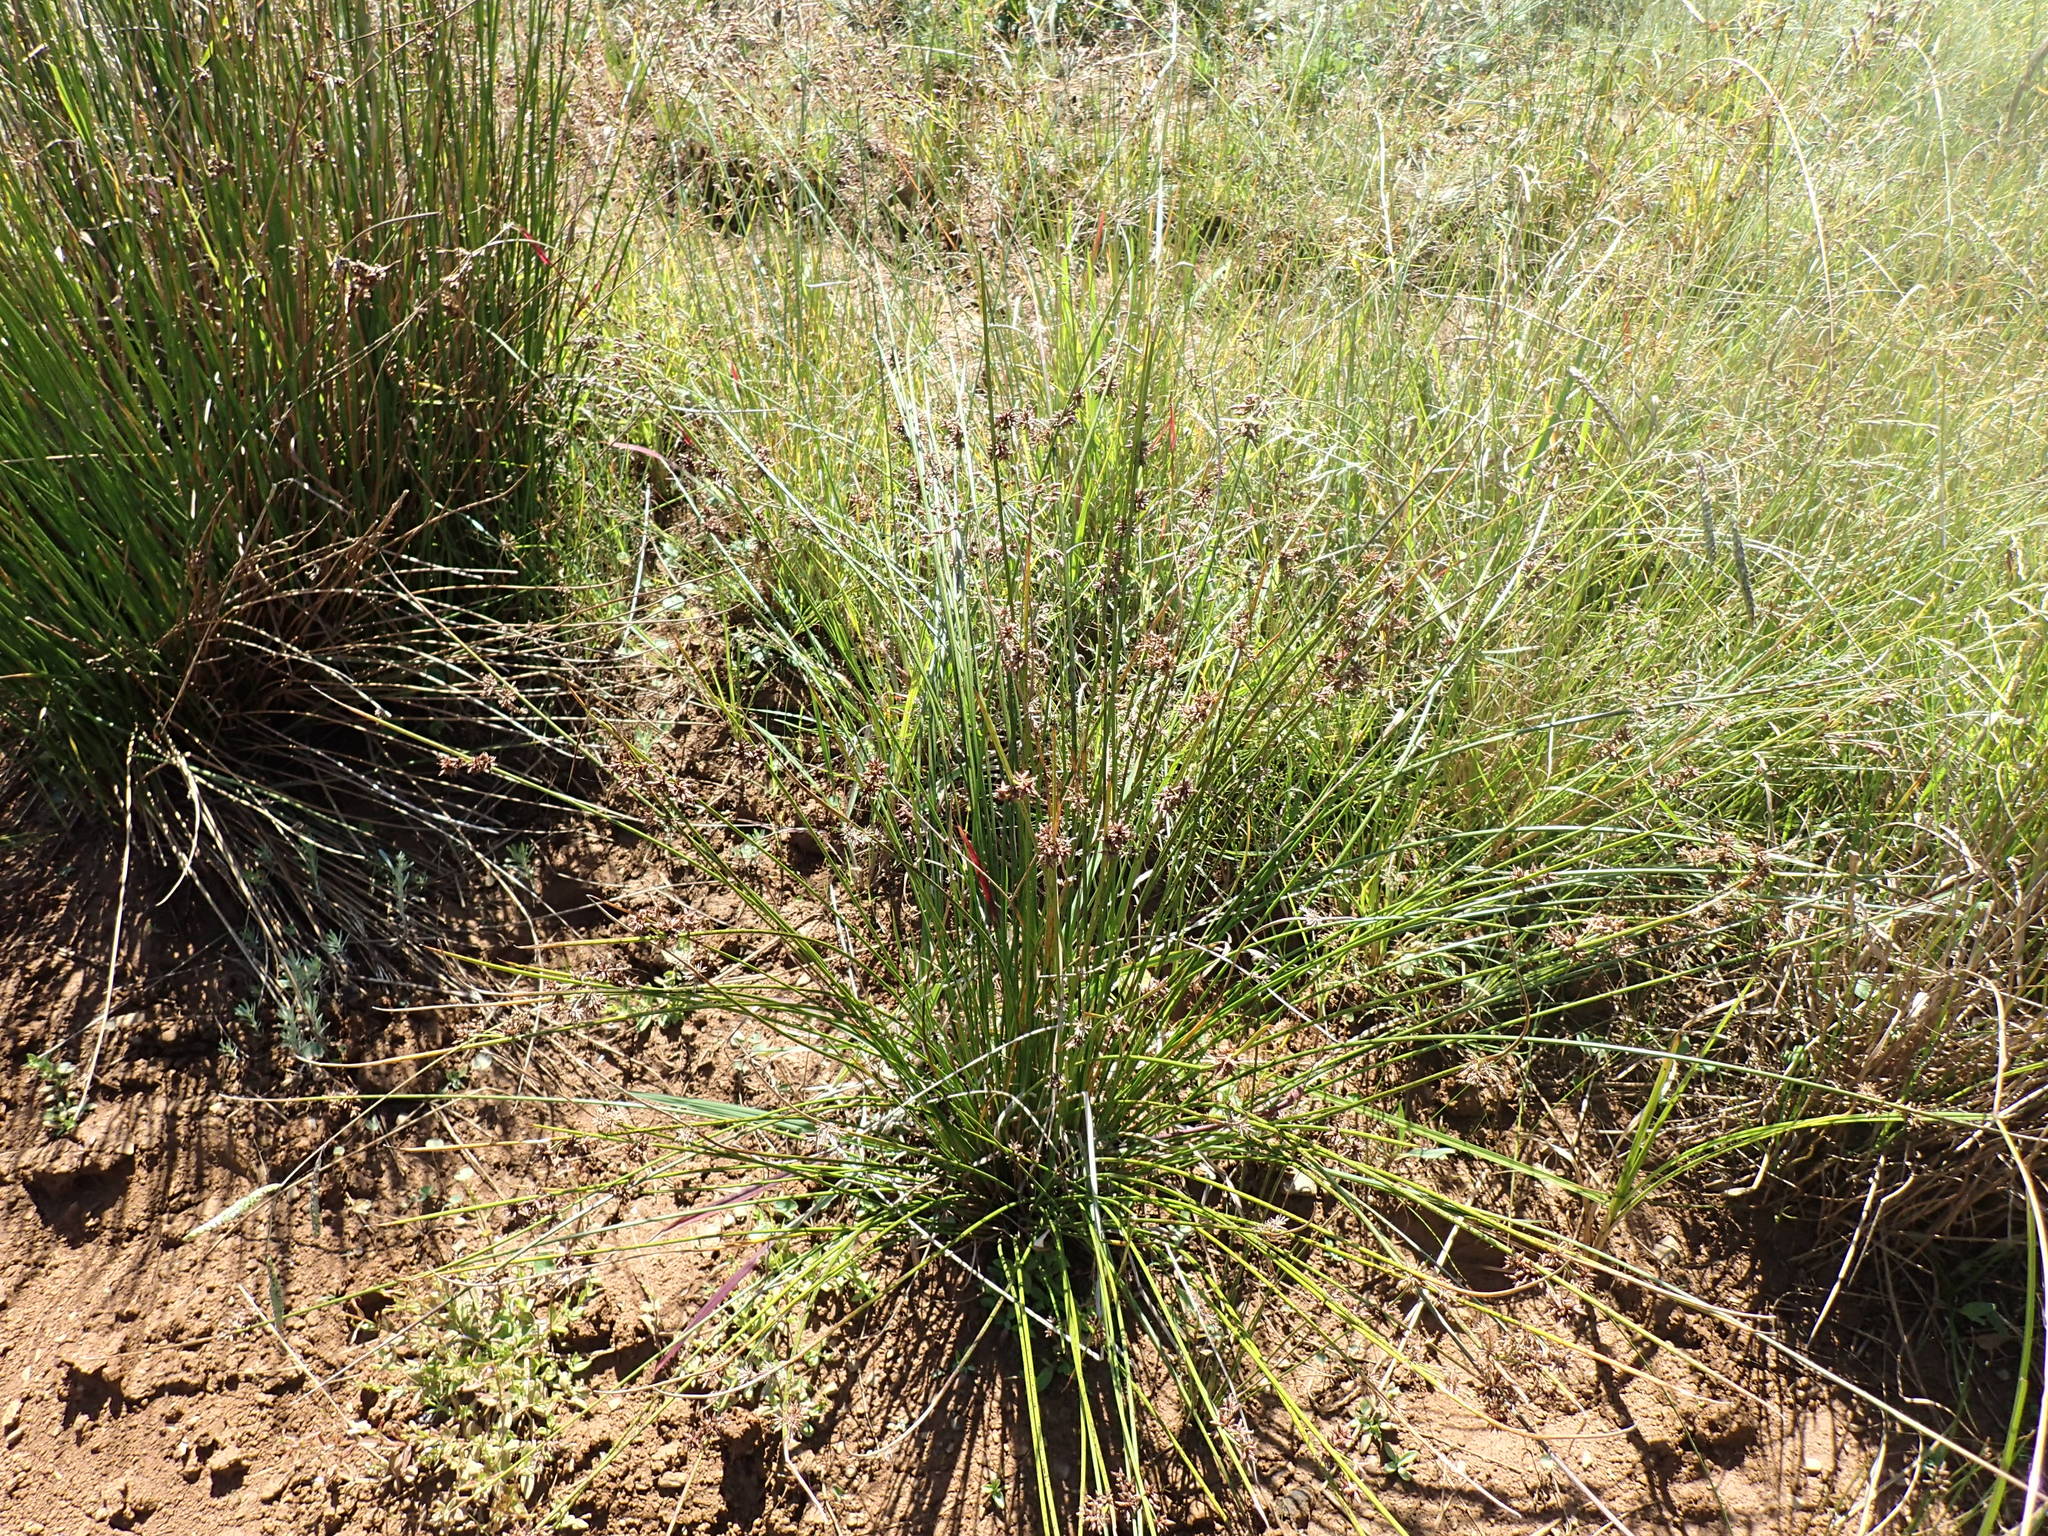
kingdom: Plantae
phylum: Tracheophyta
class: Liliopsida
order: Poales
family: Cyperaceae
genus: Schoenoplectus
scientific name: Schoenoplectus paludicola
